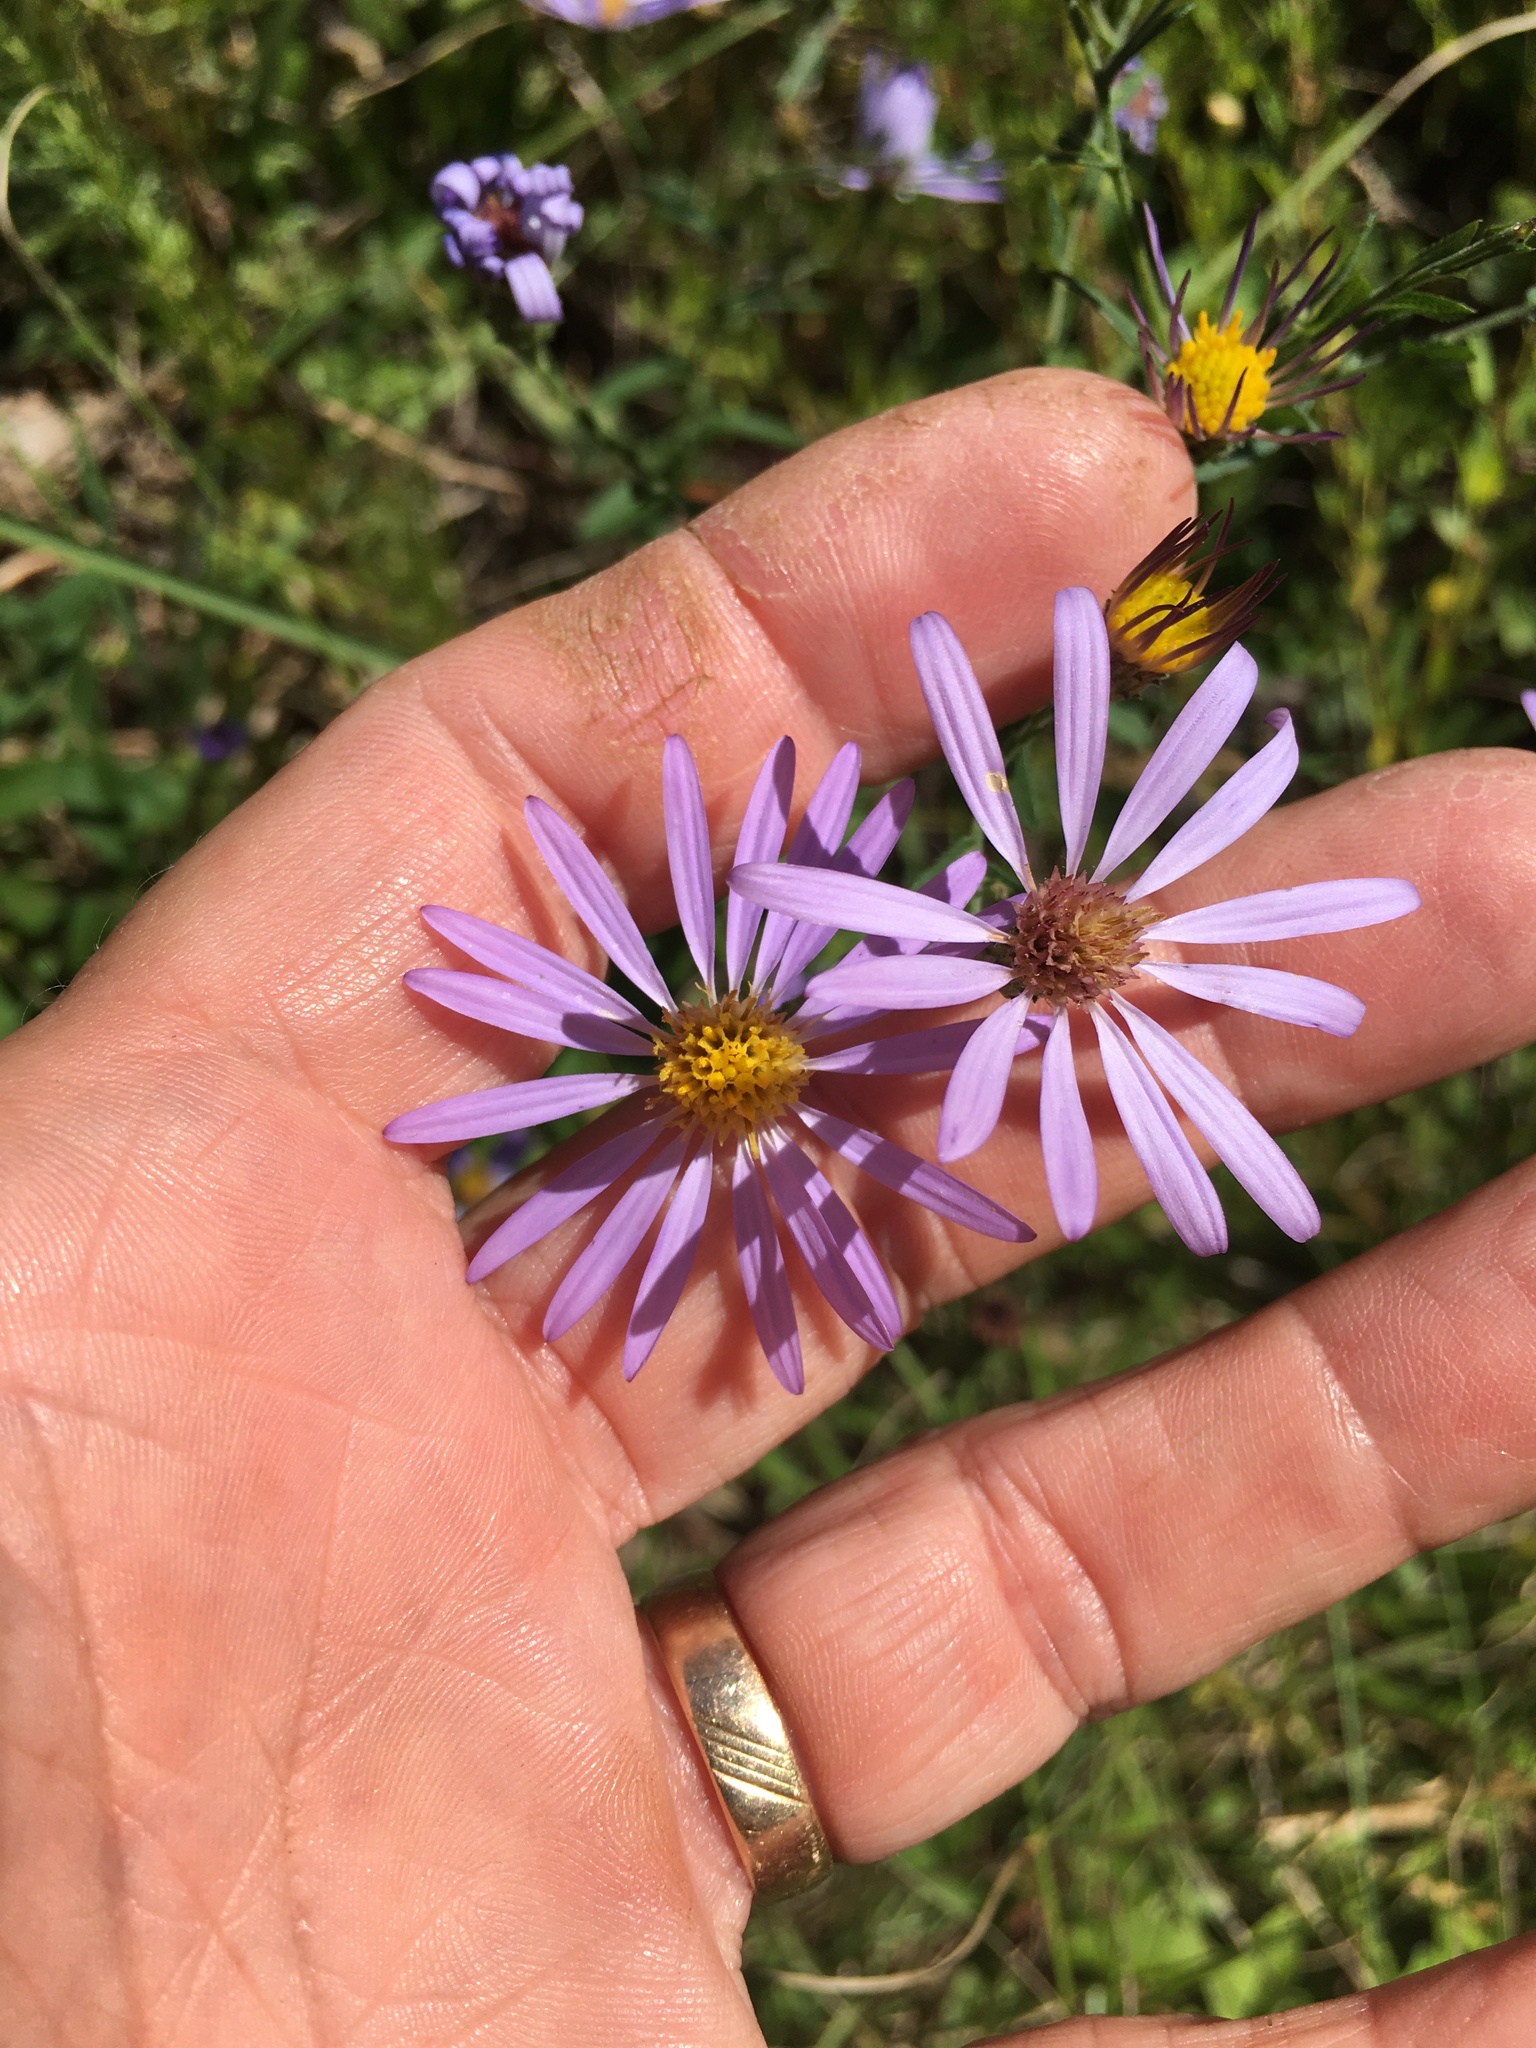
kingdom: Plantae
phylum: Tracheophyta
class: Magnoliopsida
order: Asterales
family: Asteraceae
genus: Symphyotrichum
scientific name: Symphyotrichum patens
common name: Late purple aster
